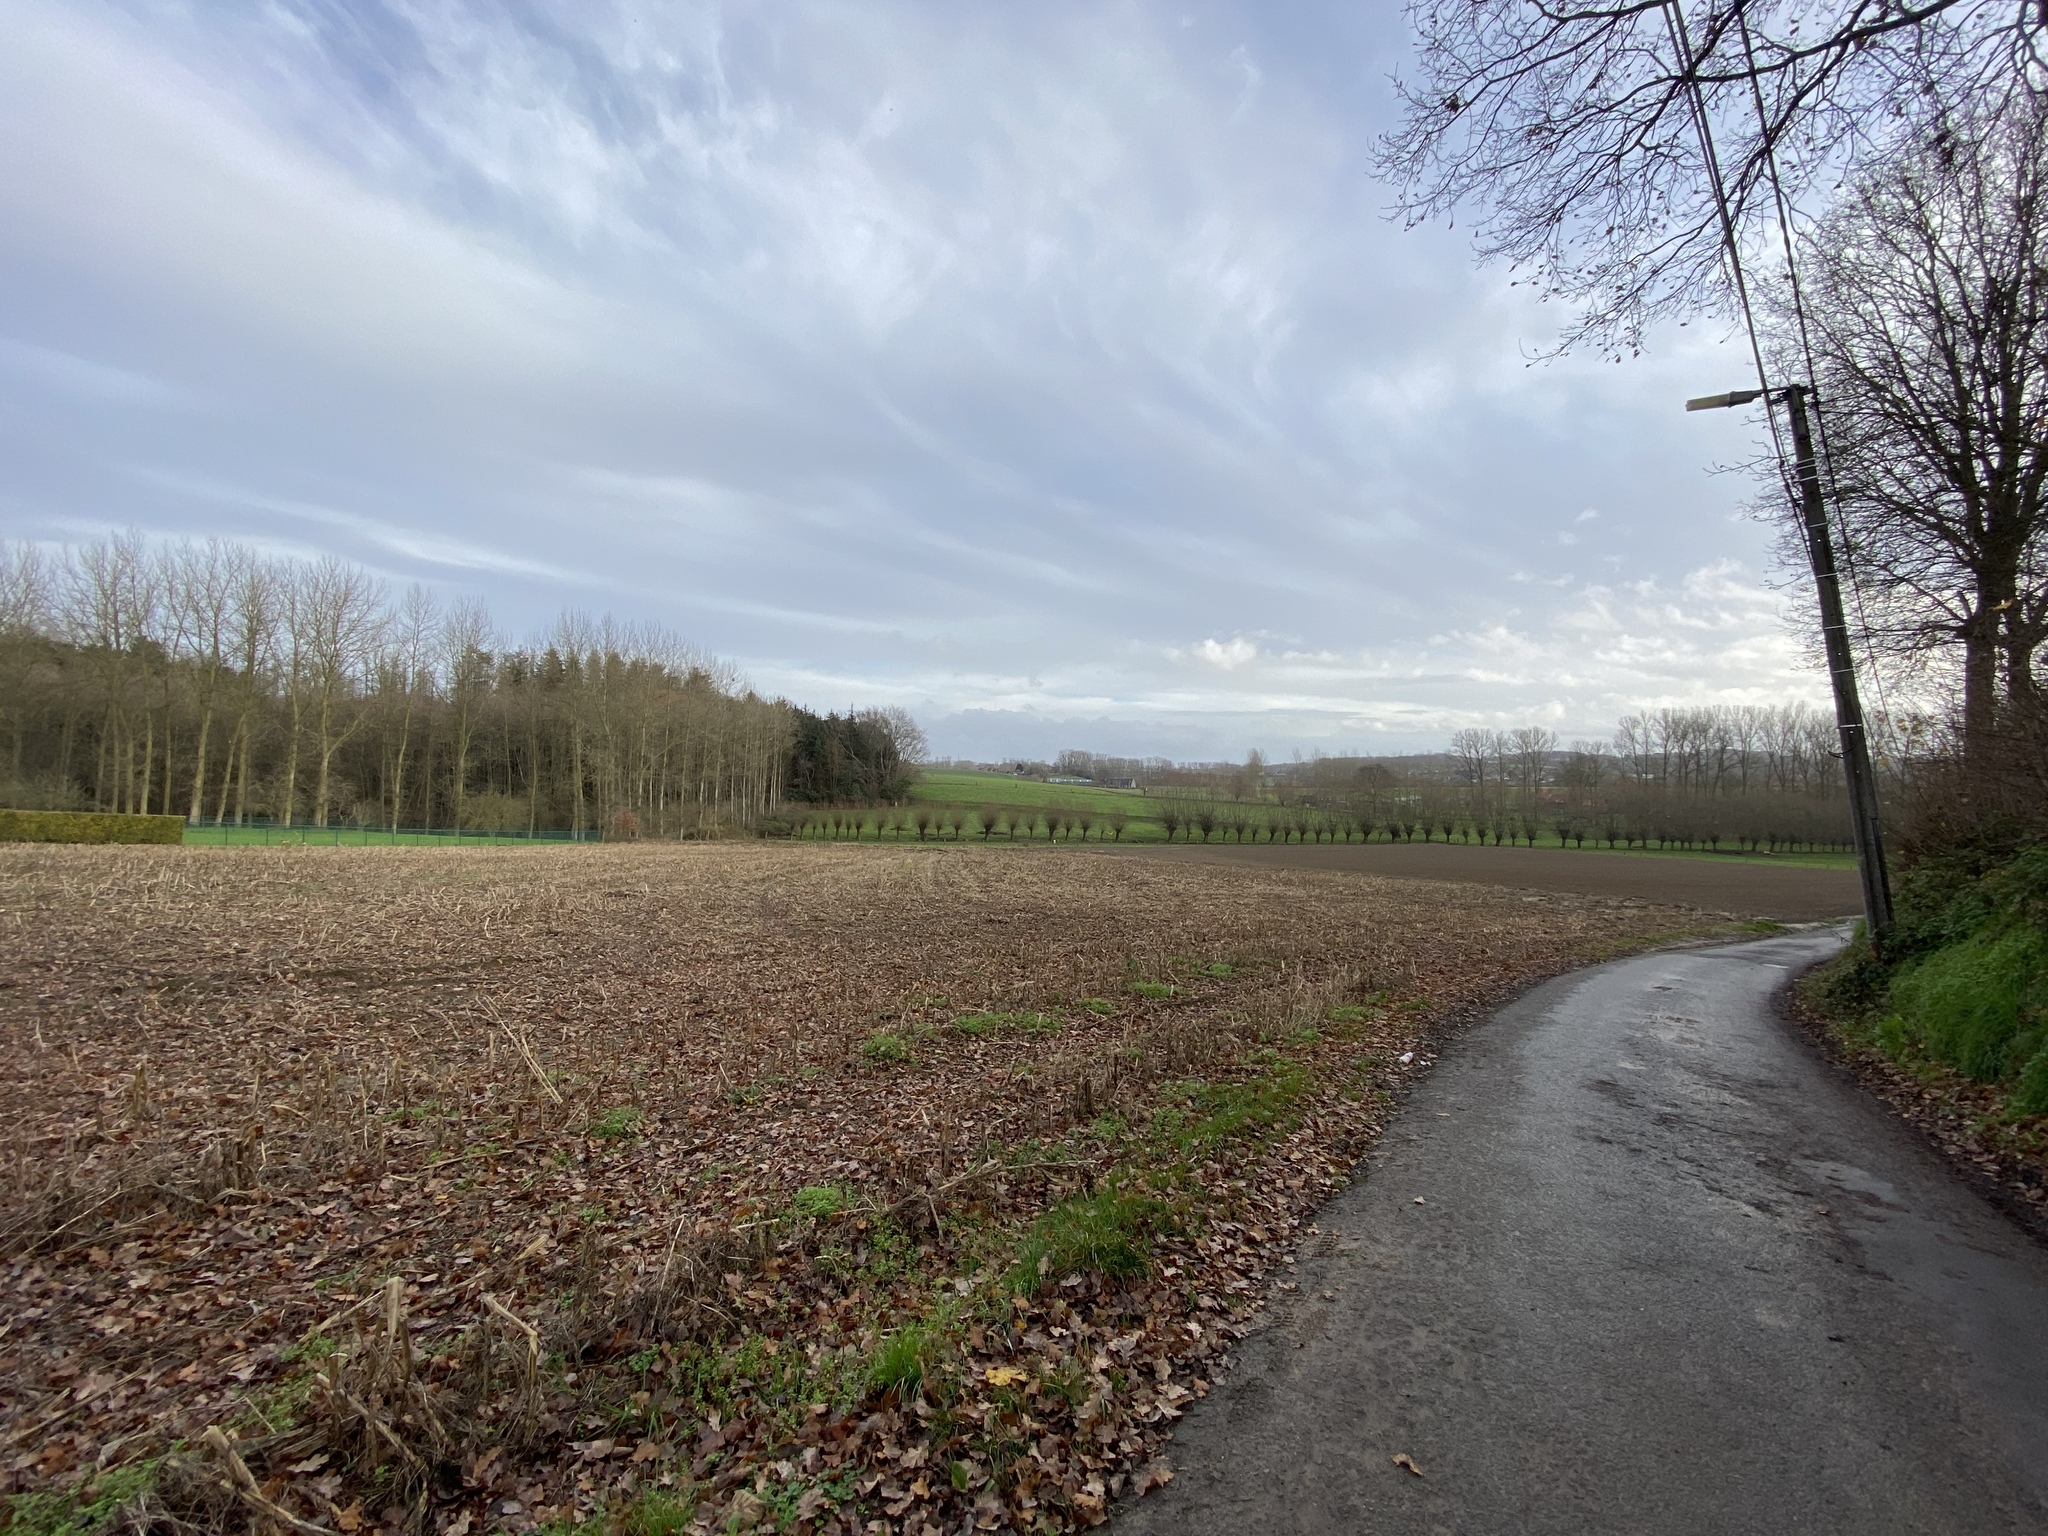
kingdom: Animalia
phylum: Arthropoda
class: Insecta
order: Hymenoptera
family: Vespidae
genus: Vespa
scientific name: Vespa velutina
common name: Asian hornet
